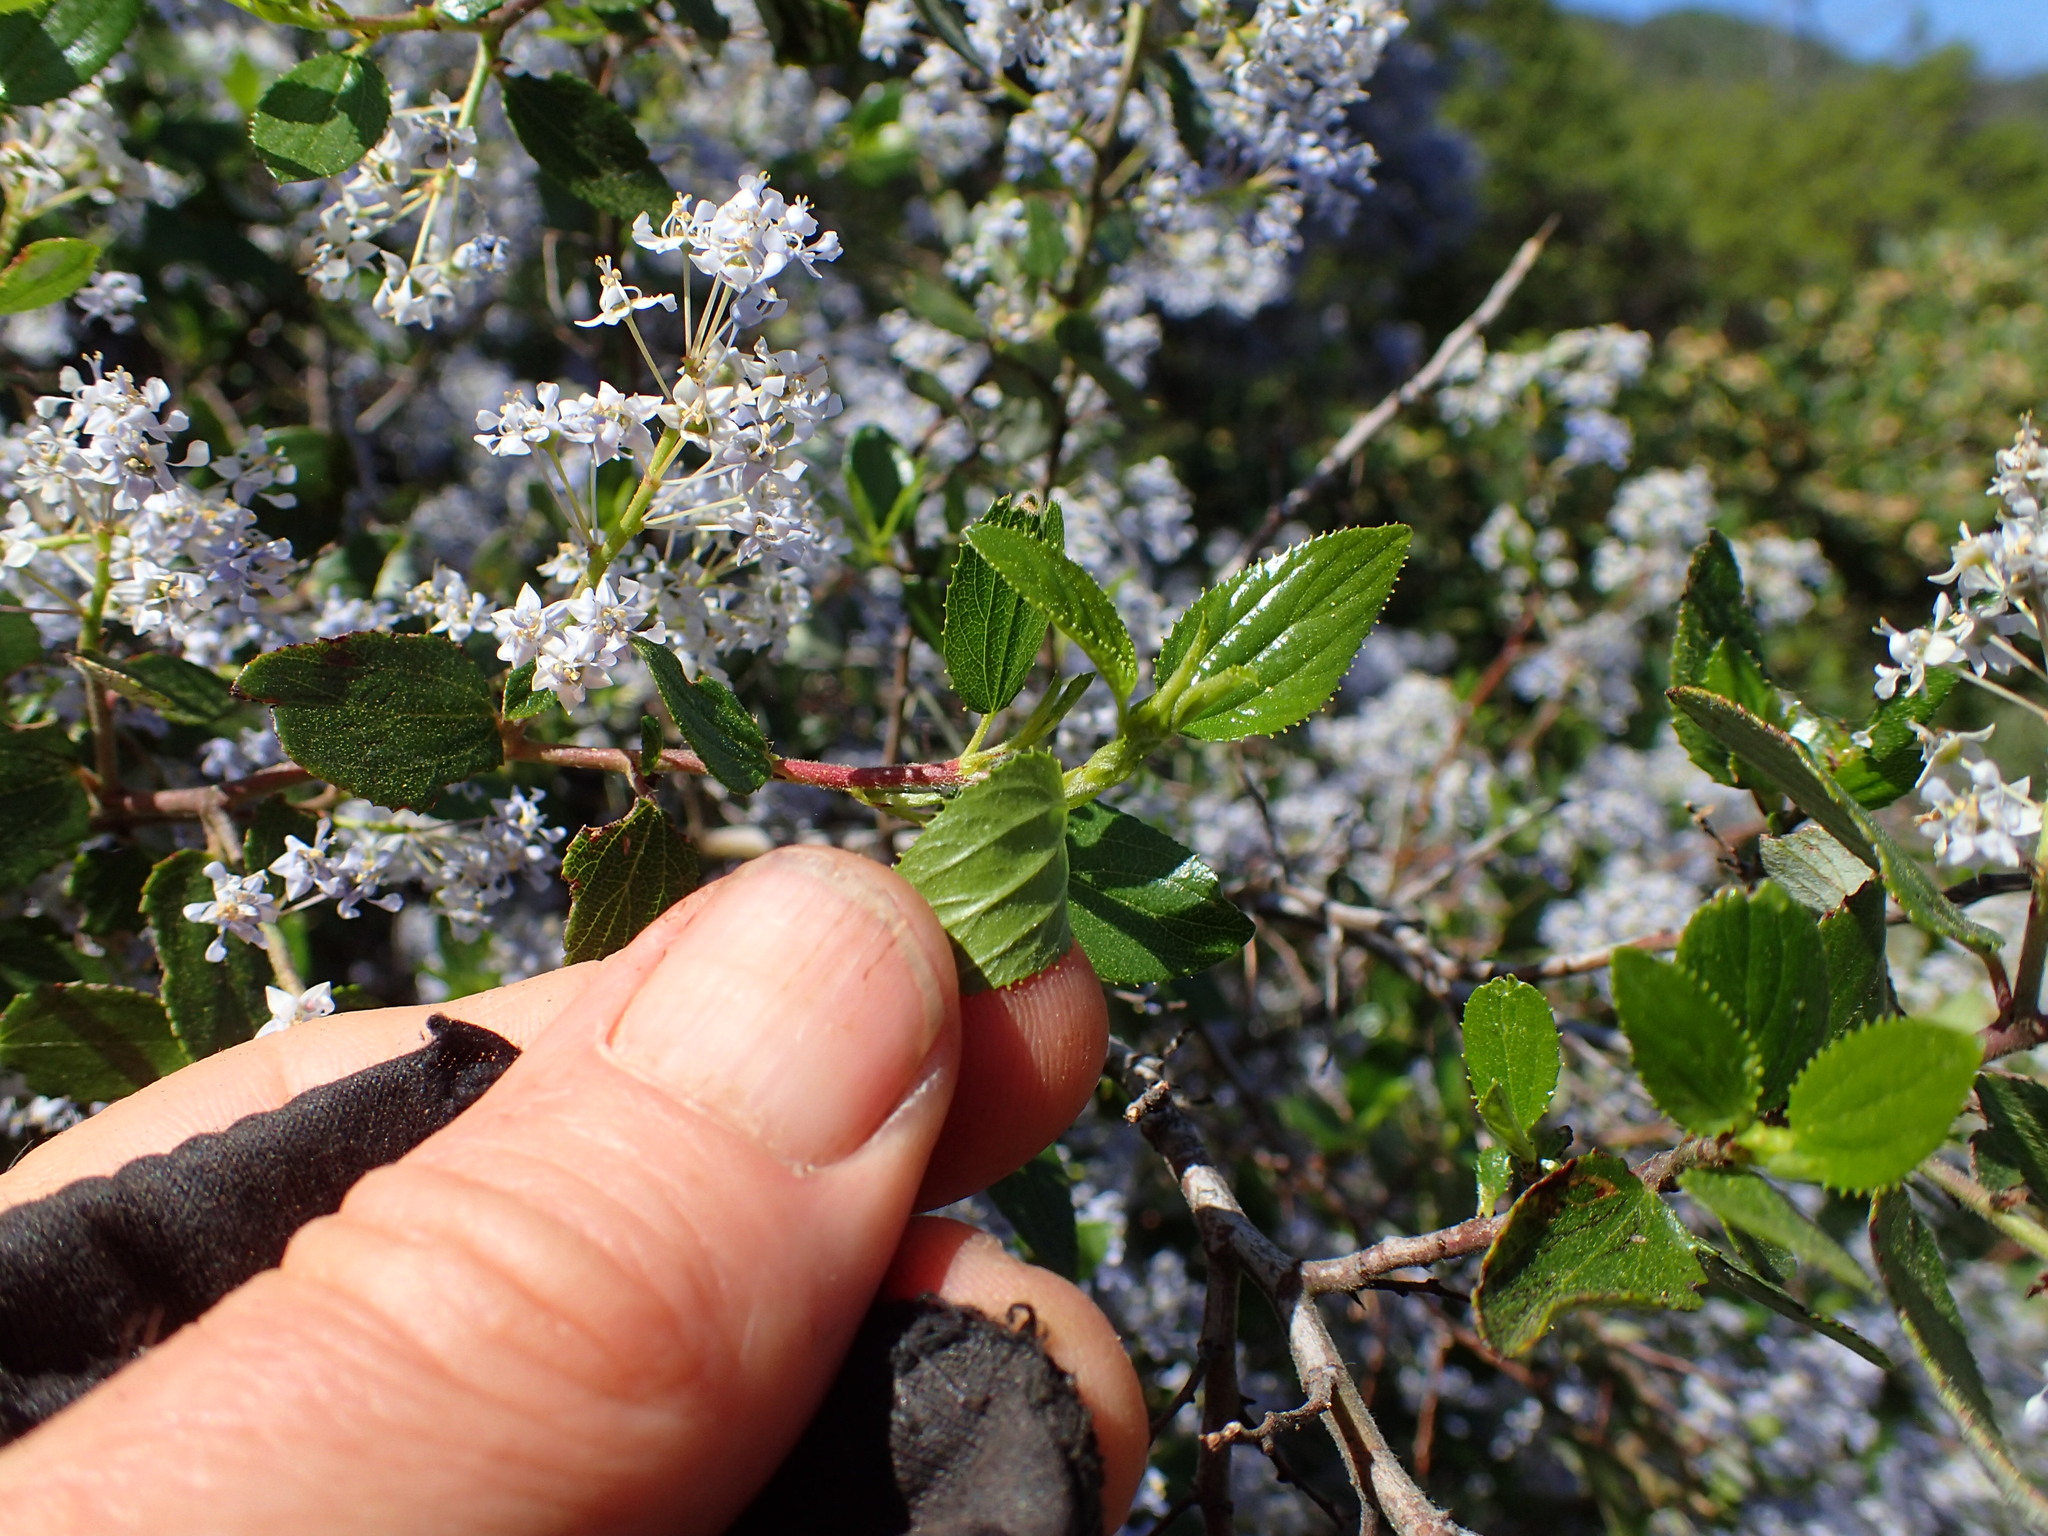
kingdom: Plantae
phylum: Tracheophyta
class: Magnoliopsida
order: Rosales
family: Rhamnaceae
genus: Ceanothus
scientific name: Ceanothus oliganthus
